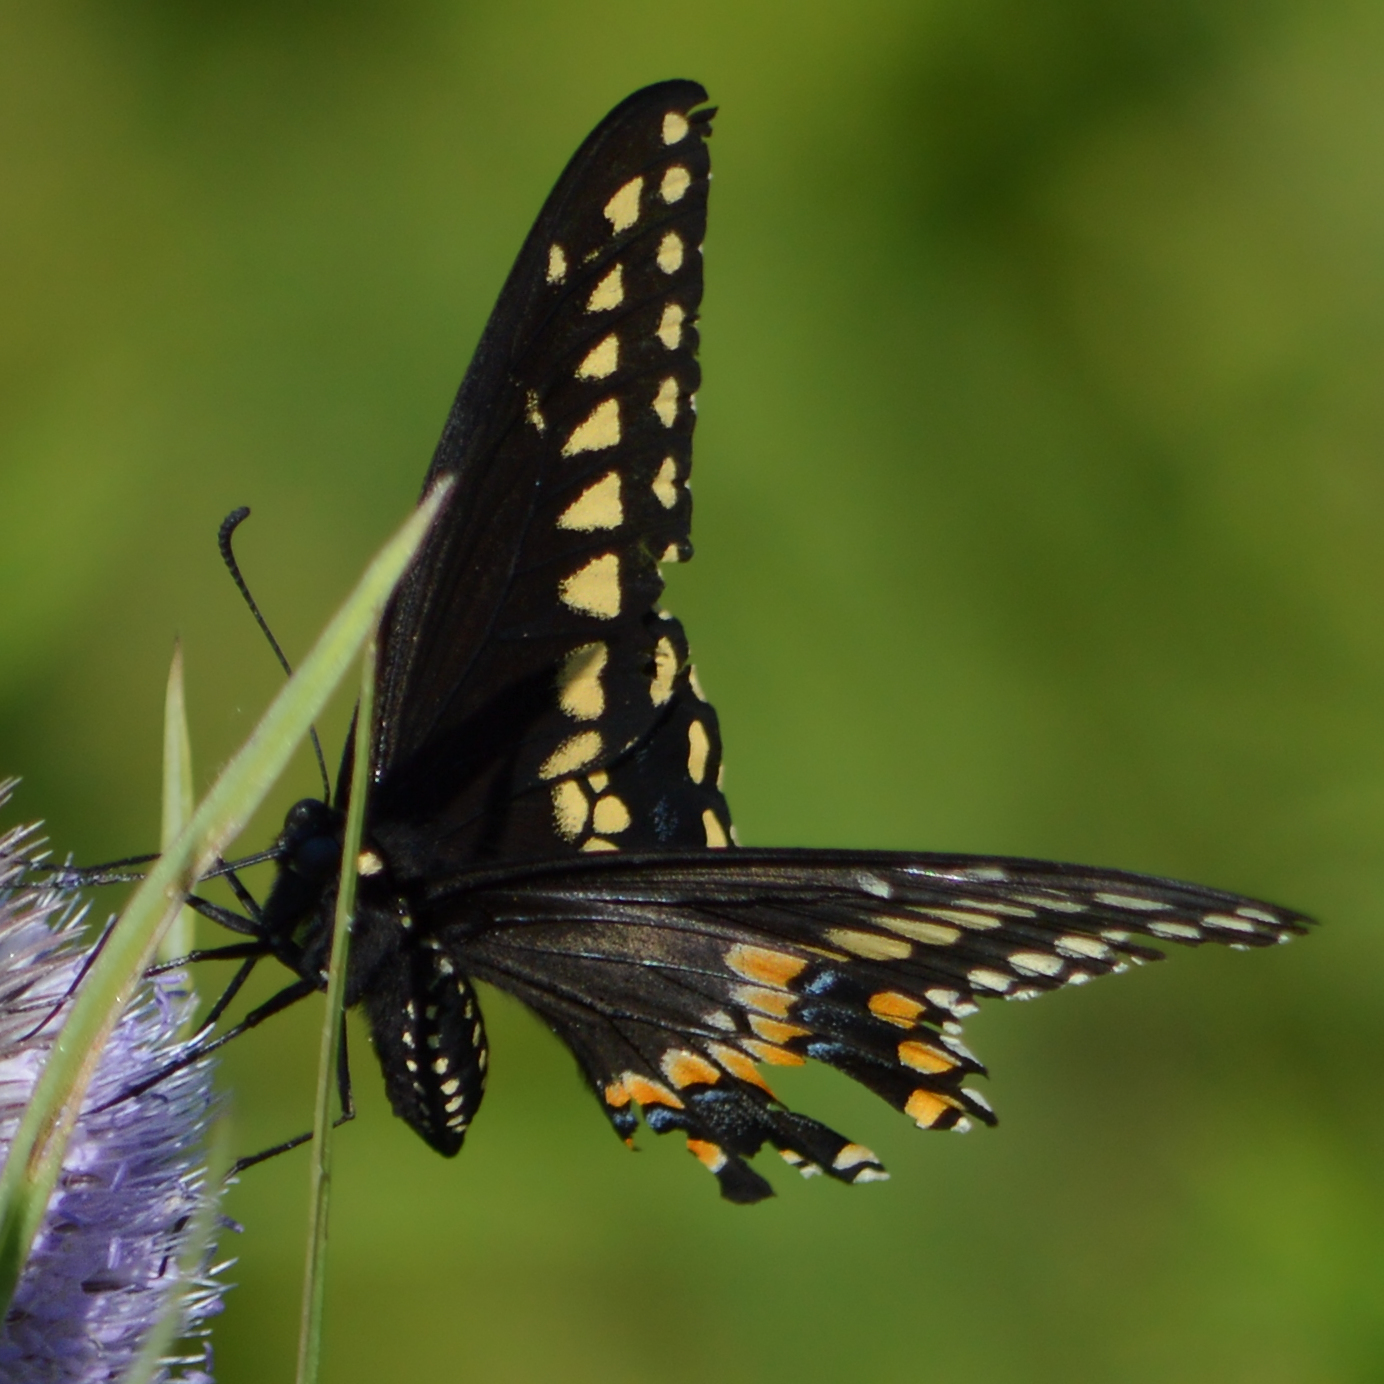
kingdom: Animalia
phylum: Arthropoda
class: Insecta
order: Lepidoptera
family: Papilionidae
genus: Papilio
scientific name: Papilio polyxenes
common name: Black swallowtail
